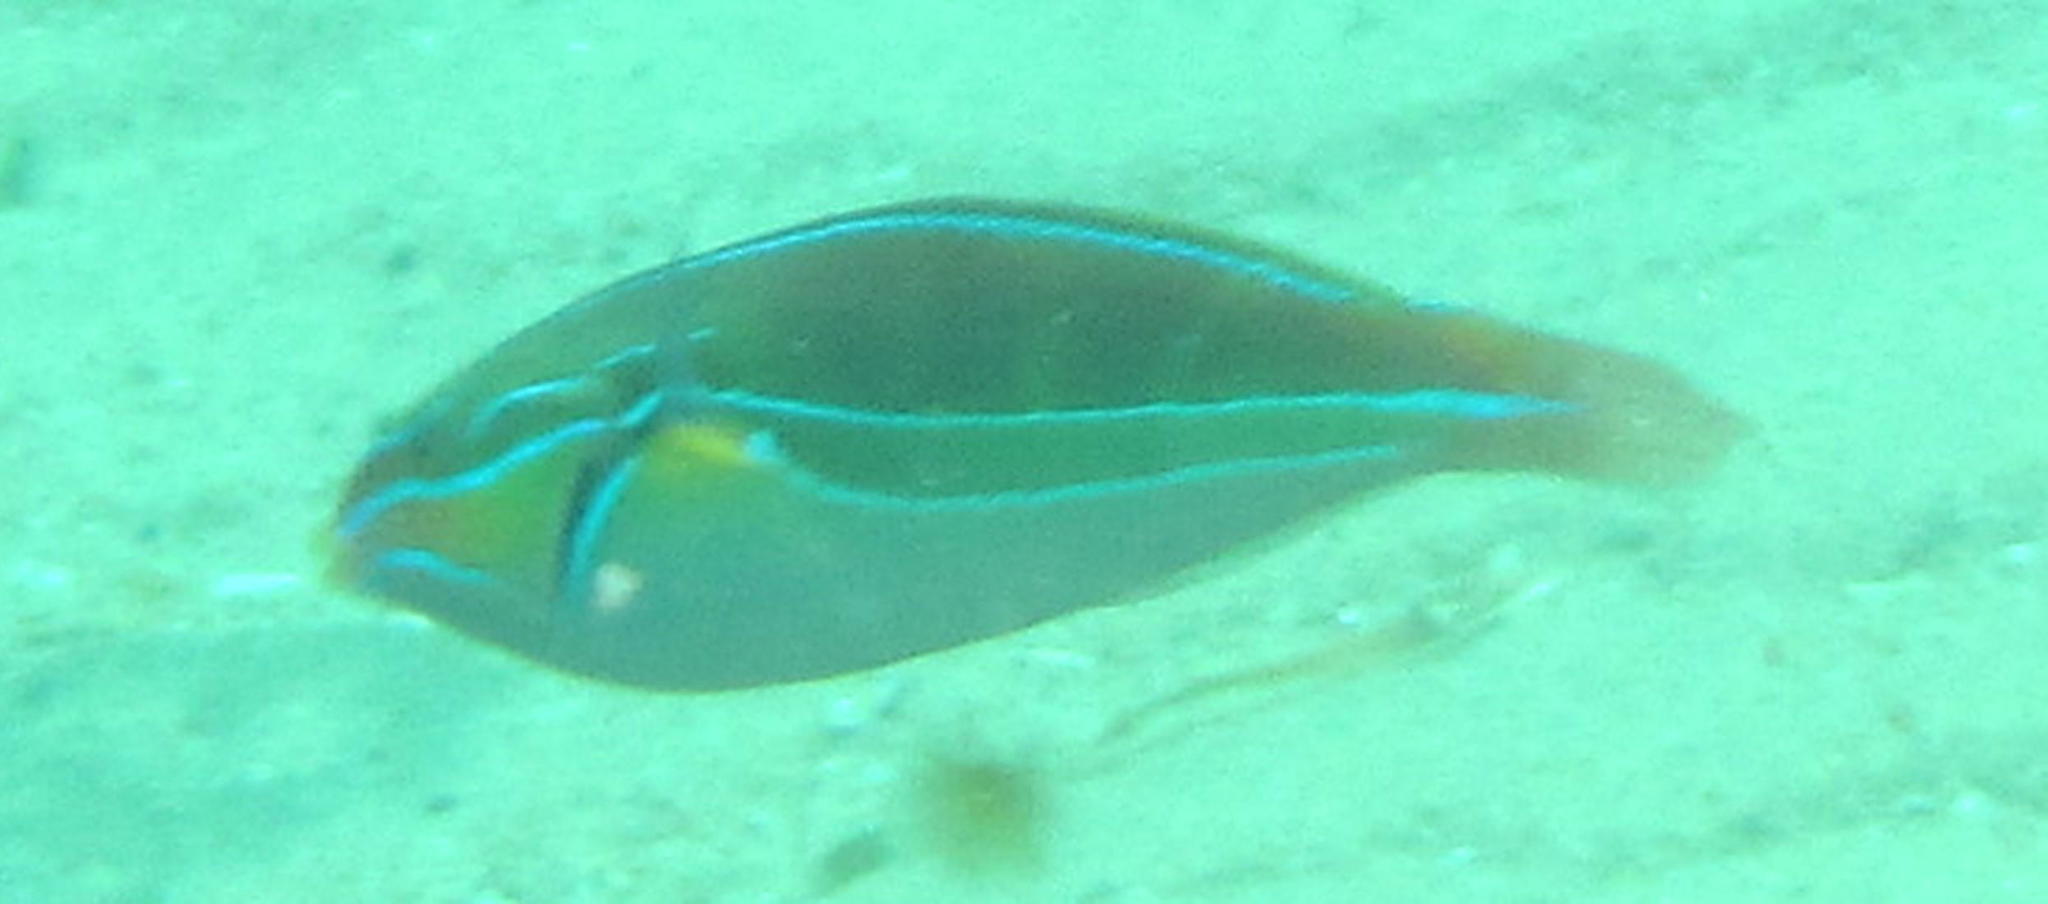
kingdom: Animalia
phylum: Chordata
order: Perciformes
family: Labridae
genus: Stethojulis
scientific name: Stethojulis albovittata
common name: Bluelined wrasse
